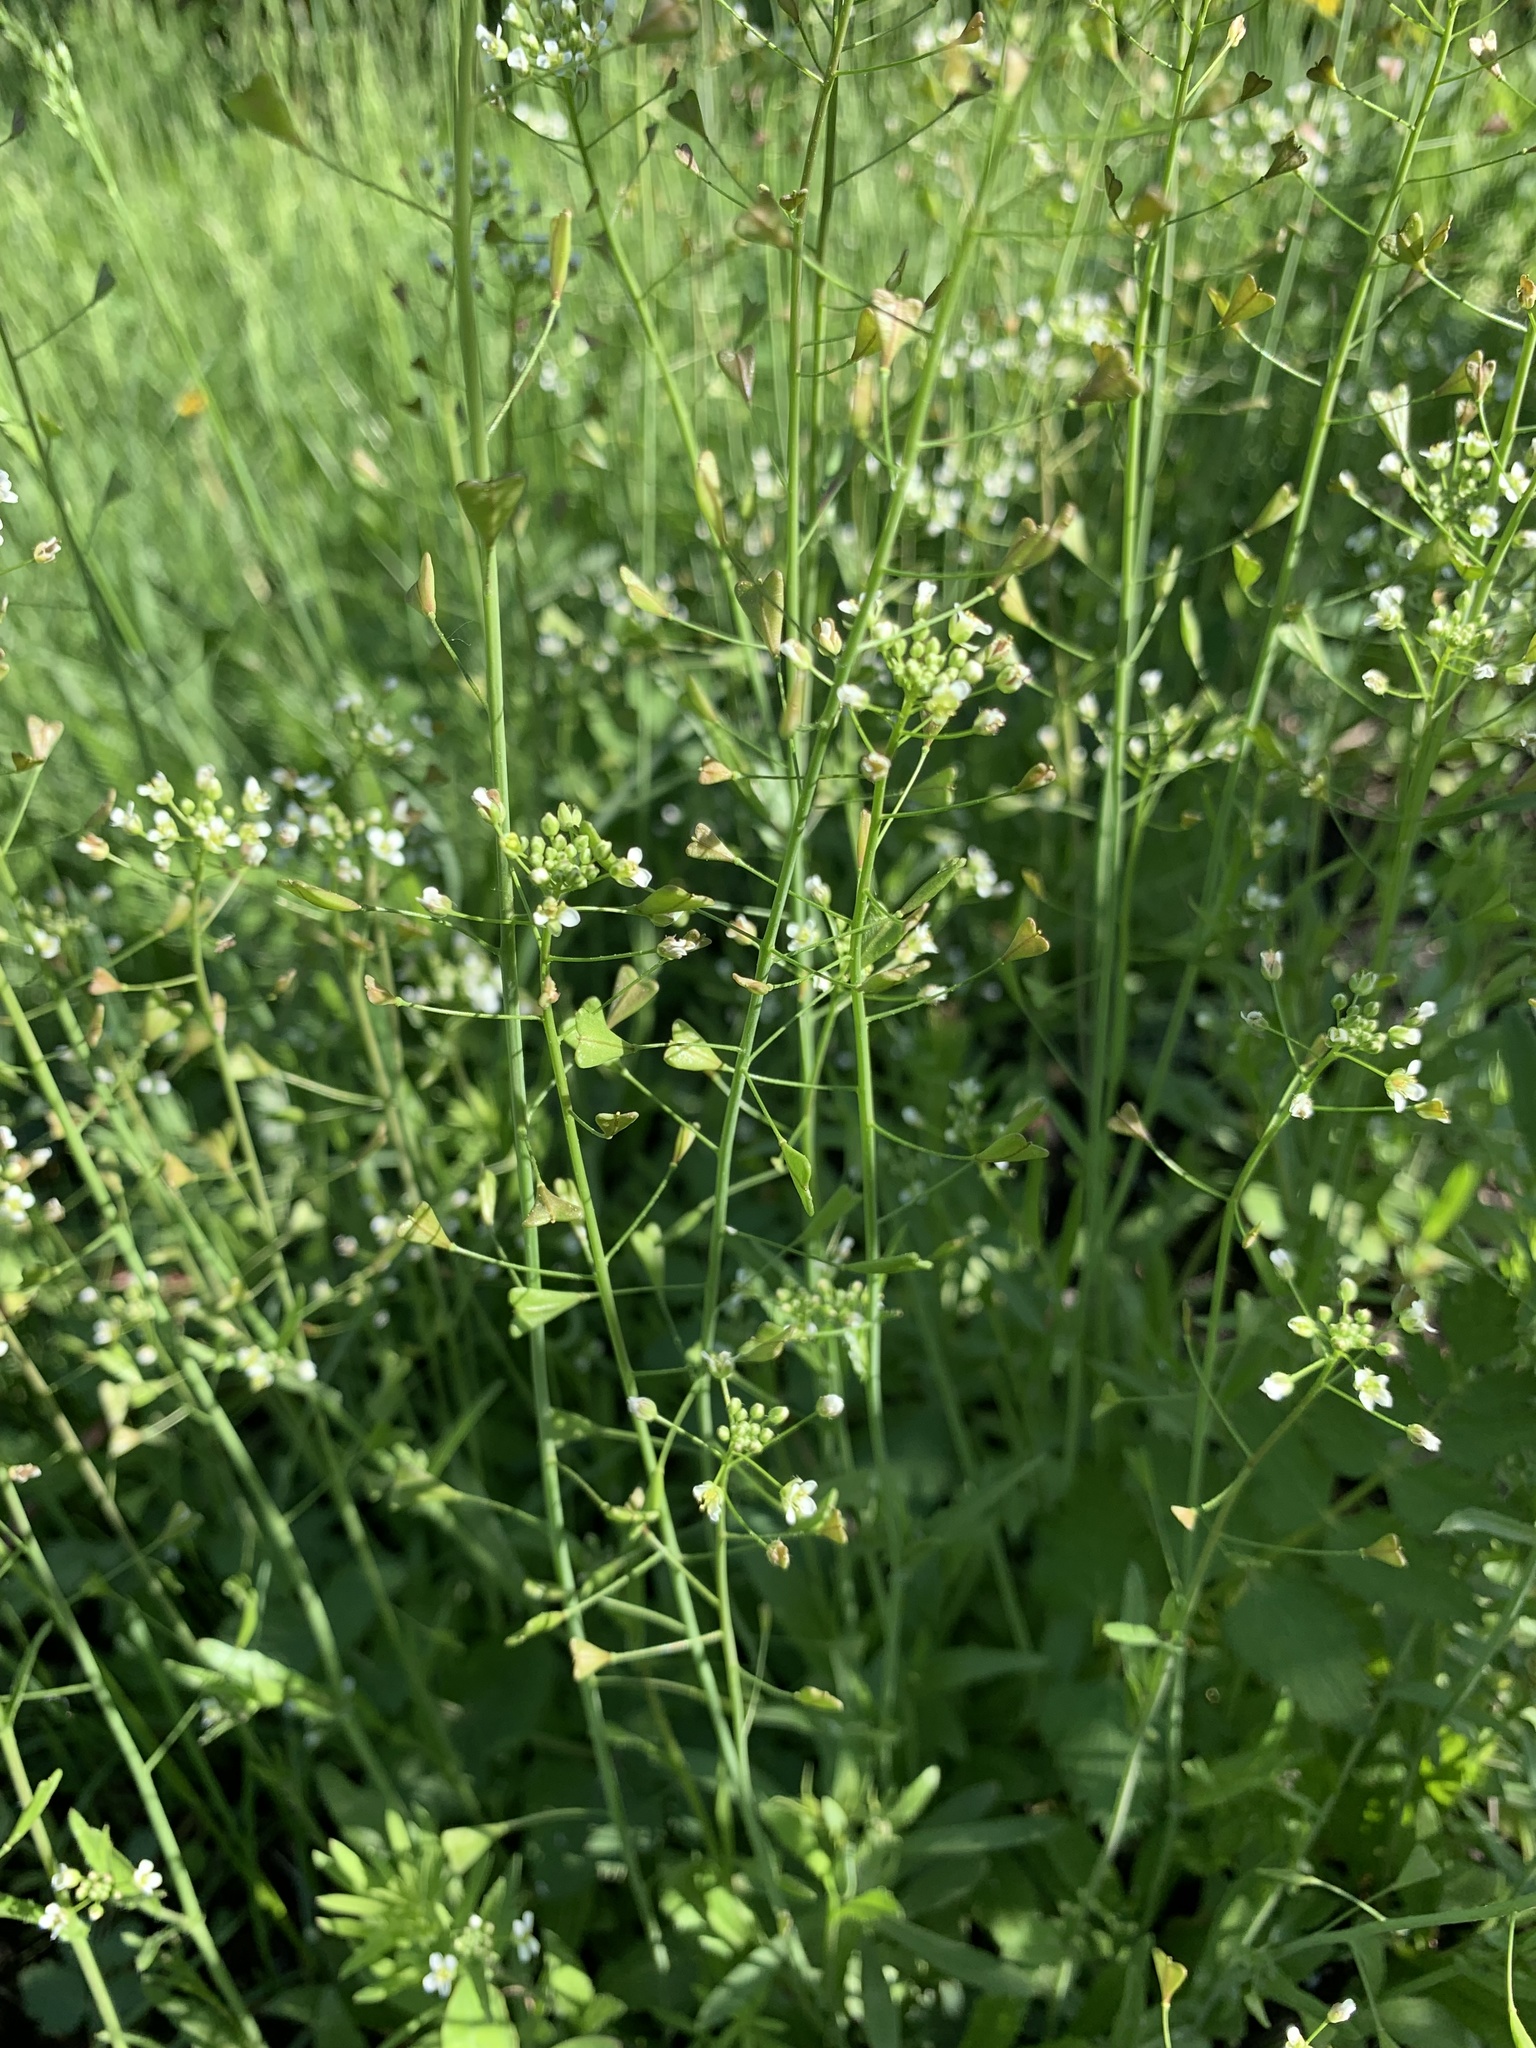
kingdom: Plantae
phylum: Tracheophyta
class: Magnoliopsida
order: Brassicales
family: Brassicaceae
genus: Capsella
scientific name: Capsella bursa-pastoris
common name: Shepherd's purse
